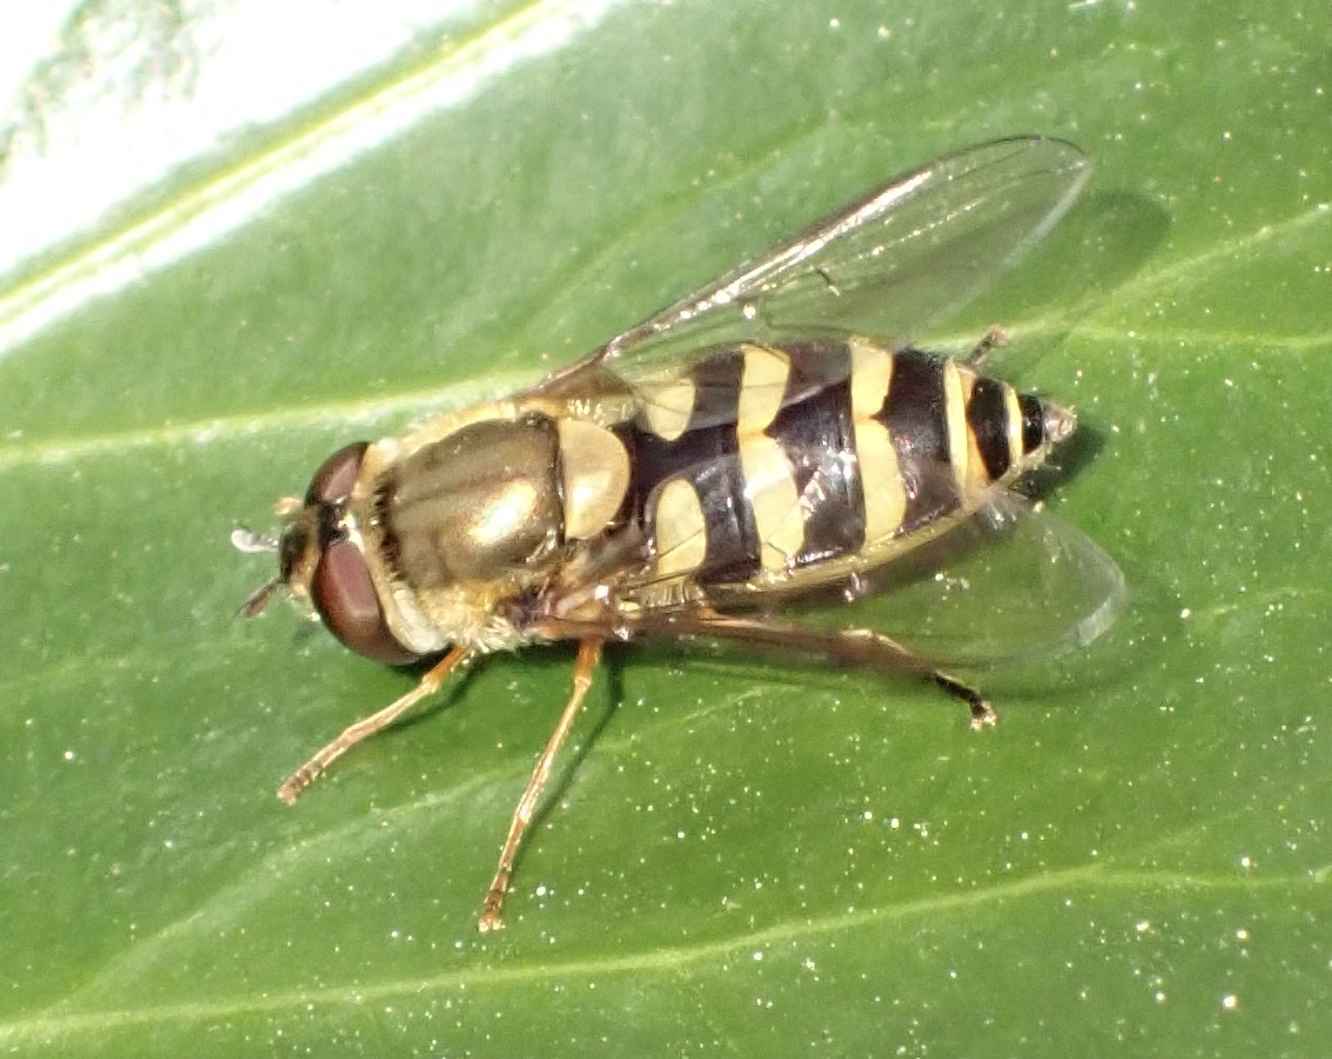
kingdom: Animalia
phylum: Arthropoda
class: Insecta
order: Diptera
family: Syrphidae
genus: Syrphus
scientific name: Syrphus
